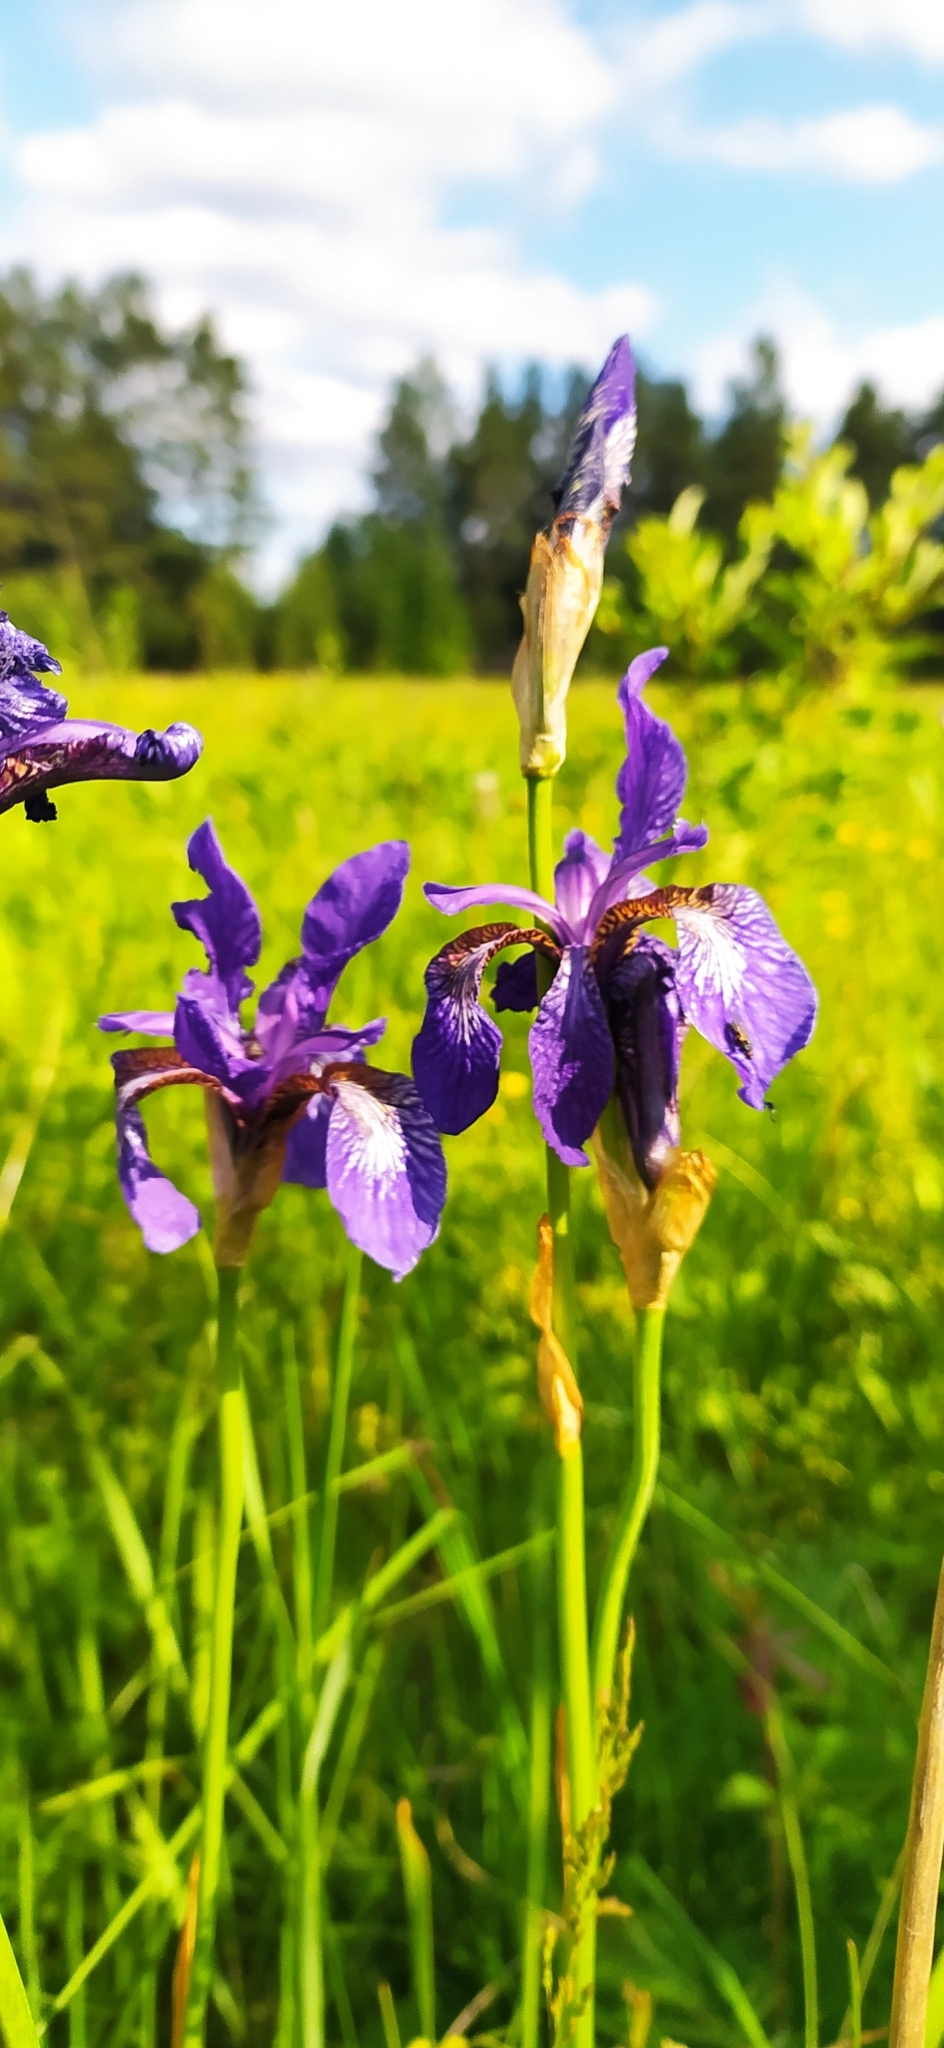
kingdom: Plantae
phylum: Tracheophyta
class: Liliopsida
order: Asparagales
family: Iridaceae
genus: Iris
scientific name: Iris sibirica
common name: Siberian iris
